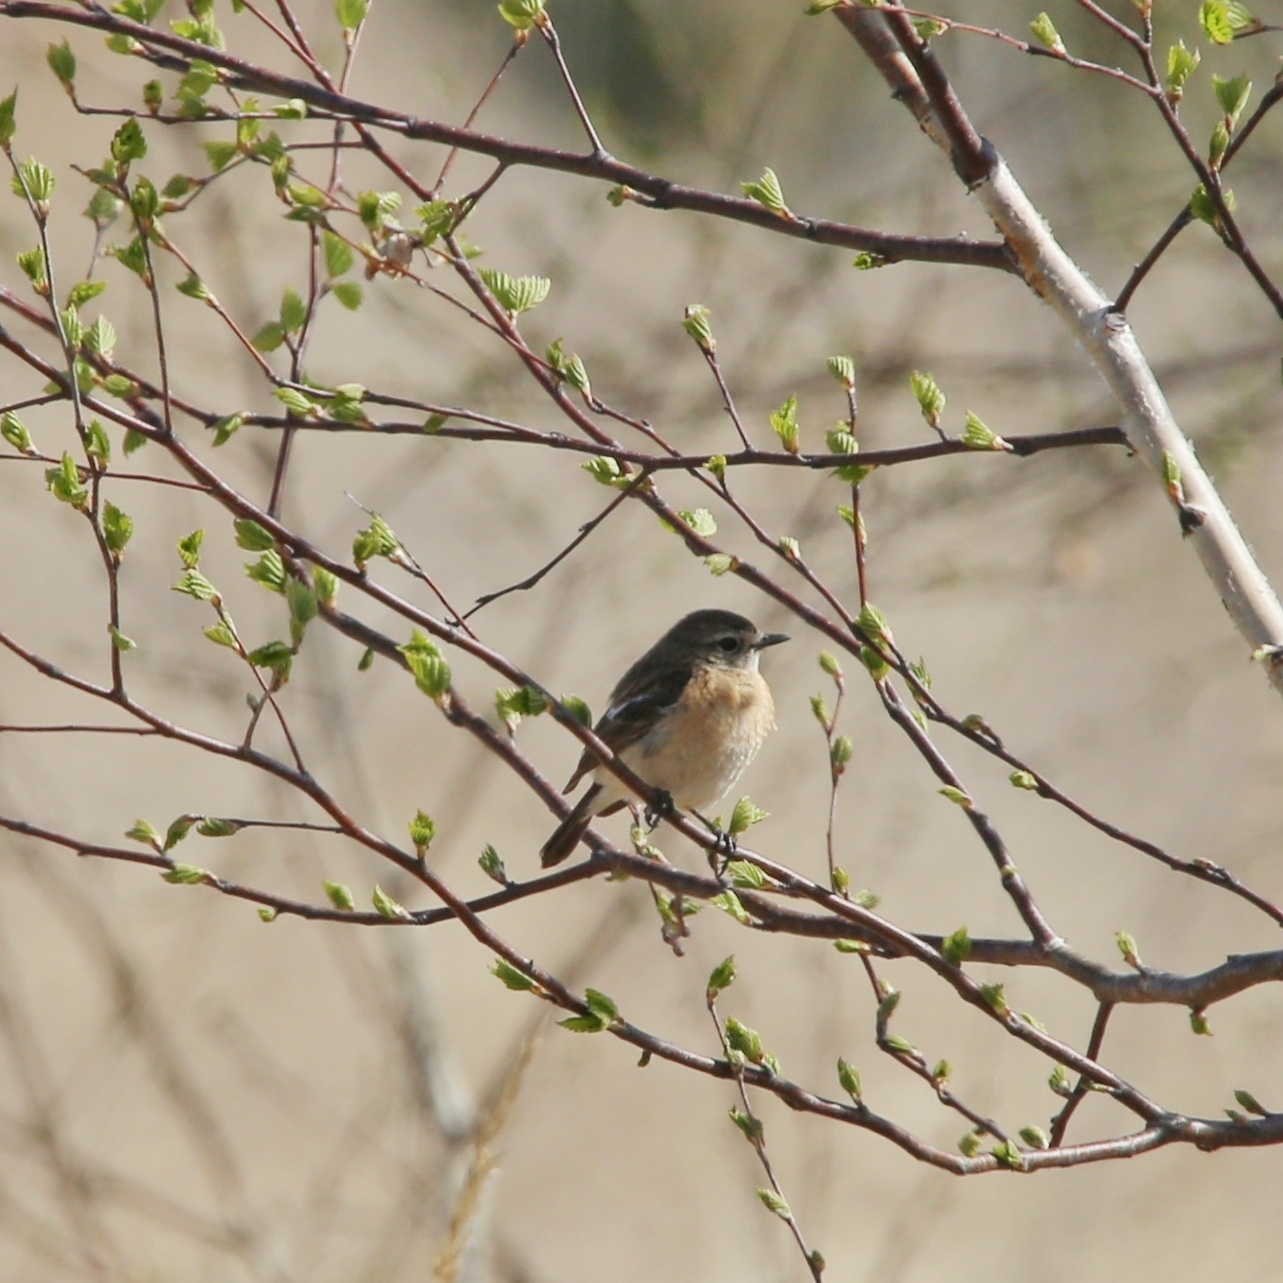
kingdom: Animalia
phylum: Chordata
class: Aves
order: Passeriformes
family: Muscicapidae
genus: Saxicola
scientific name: Saxicola maurus
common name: Siberian stonechat
